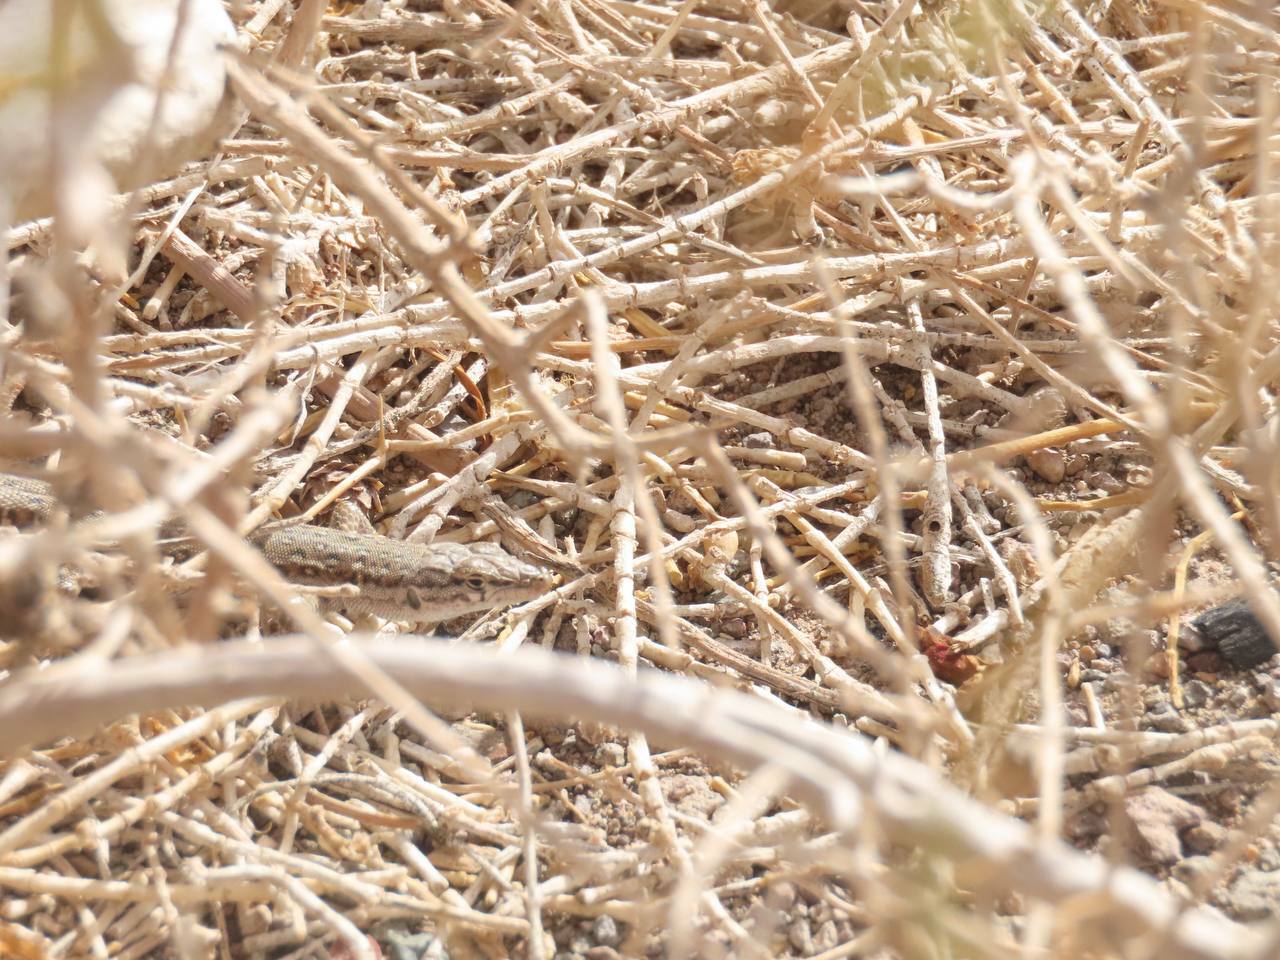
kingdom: Animalia
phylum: Chordata
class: Squamata
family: Lacertidae
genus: Mesalina
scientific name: Mesalina watsonana
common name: Persian long-tailed desert lizard
